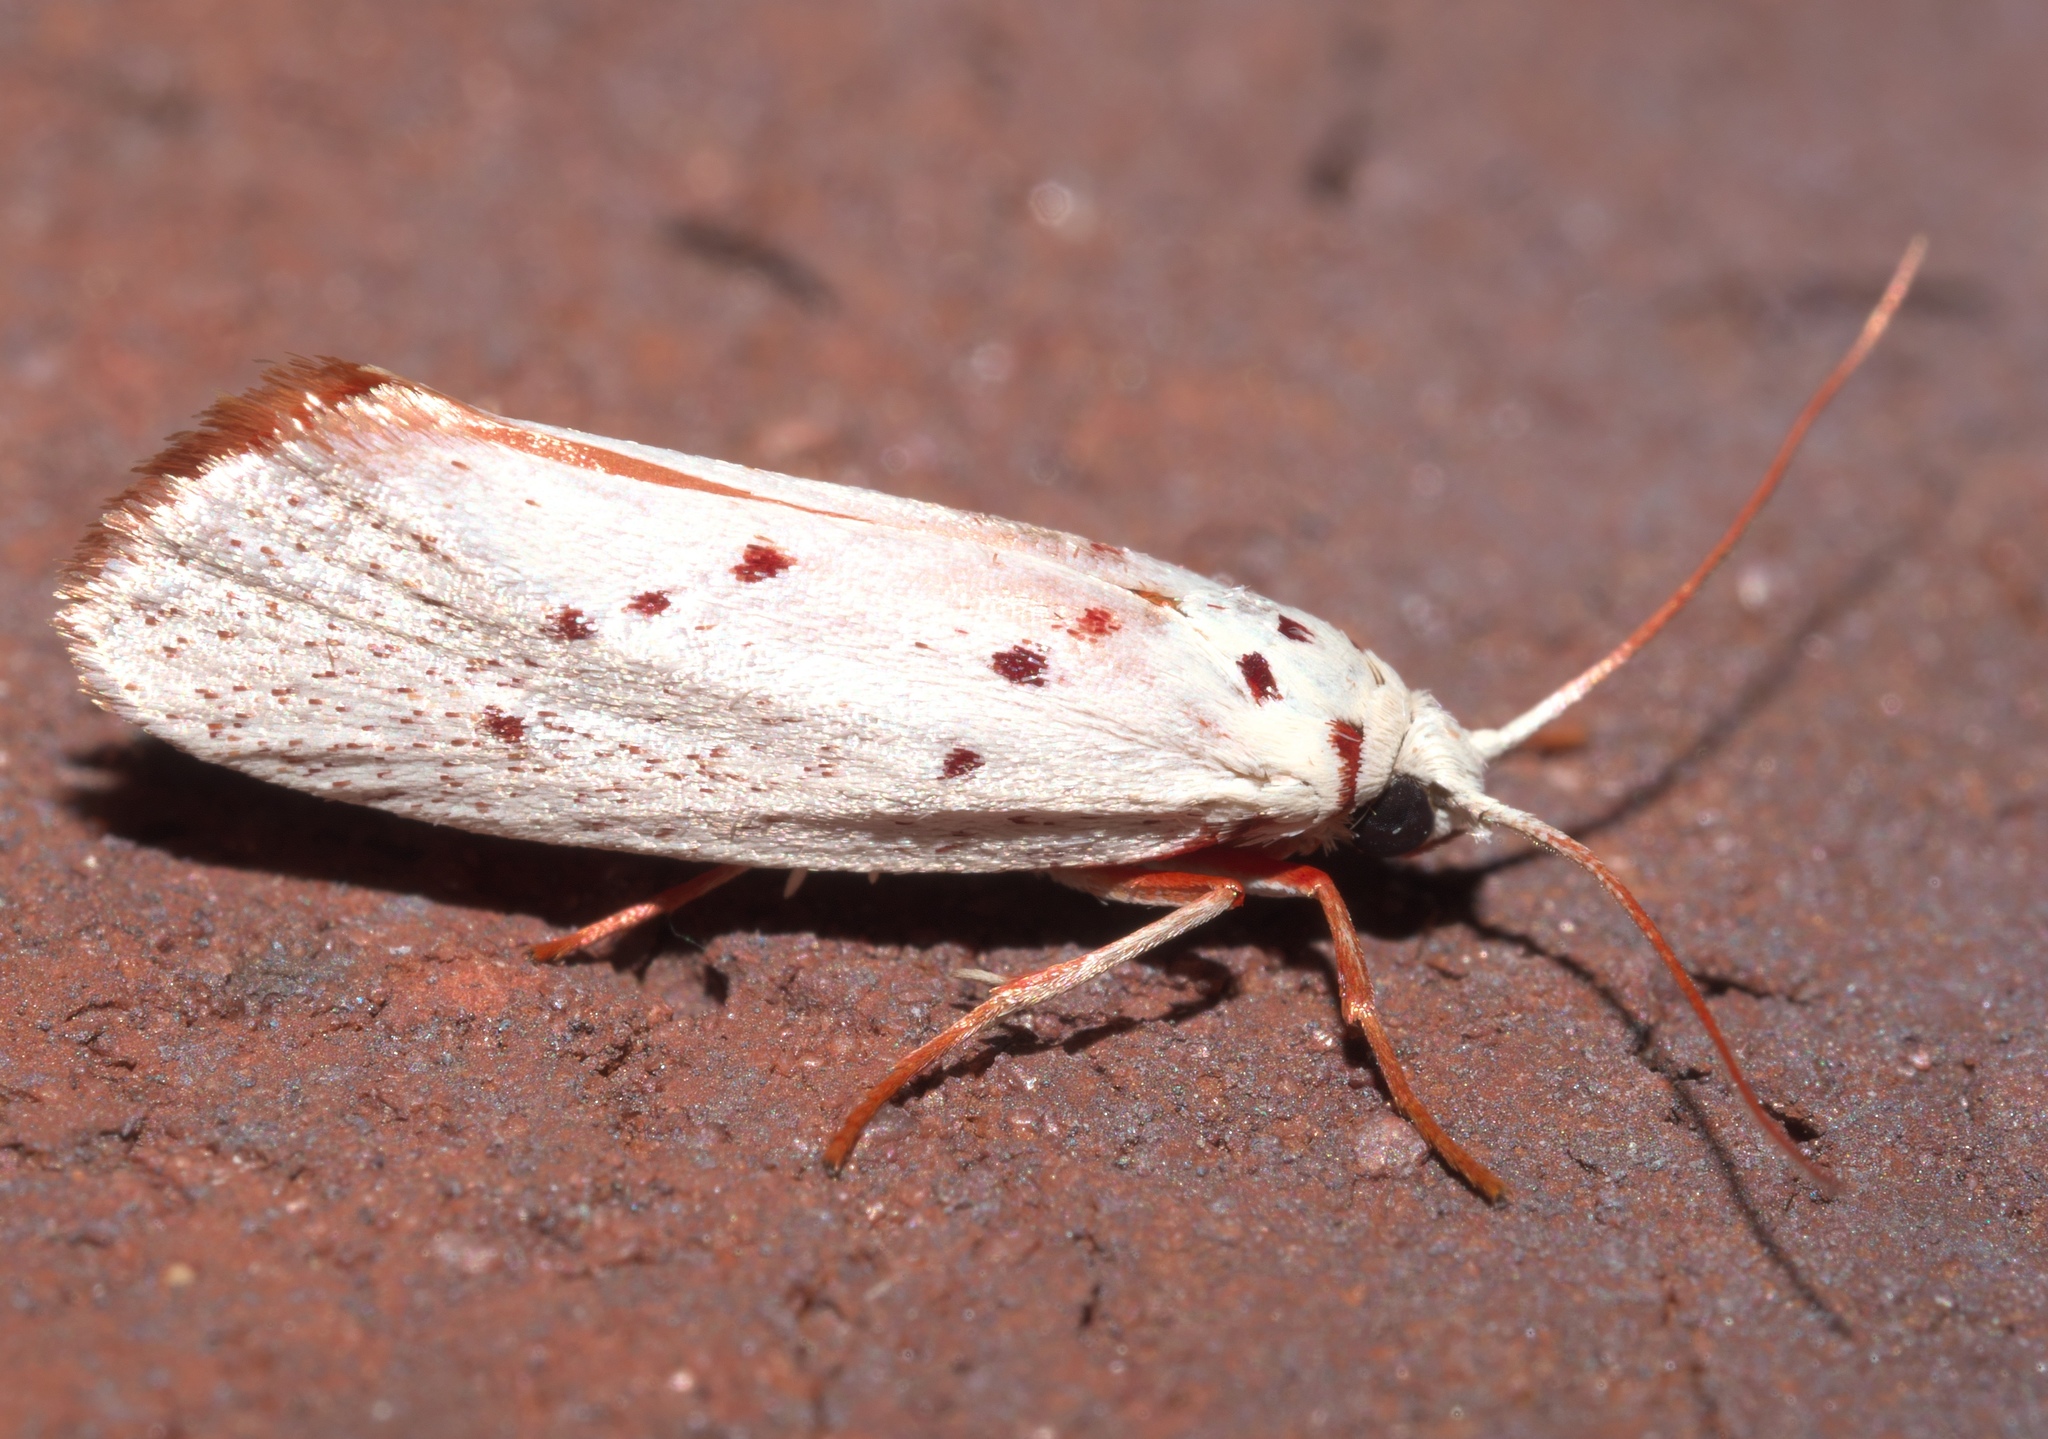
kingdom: Animalia
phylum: Arthropoda
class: Insecta
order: Lepidoptera
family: Lacturidae
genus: Lactura
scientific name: Lactura
